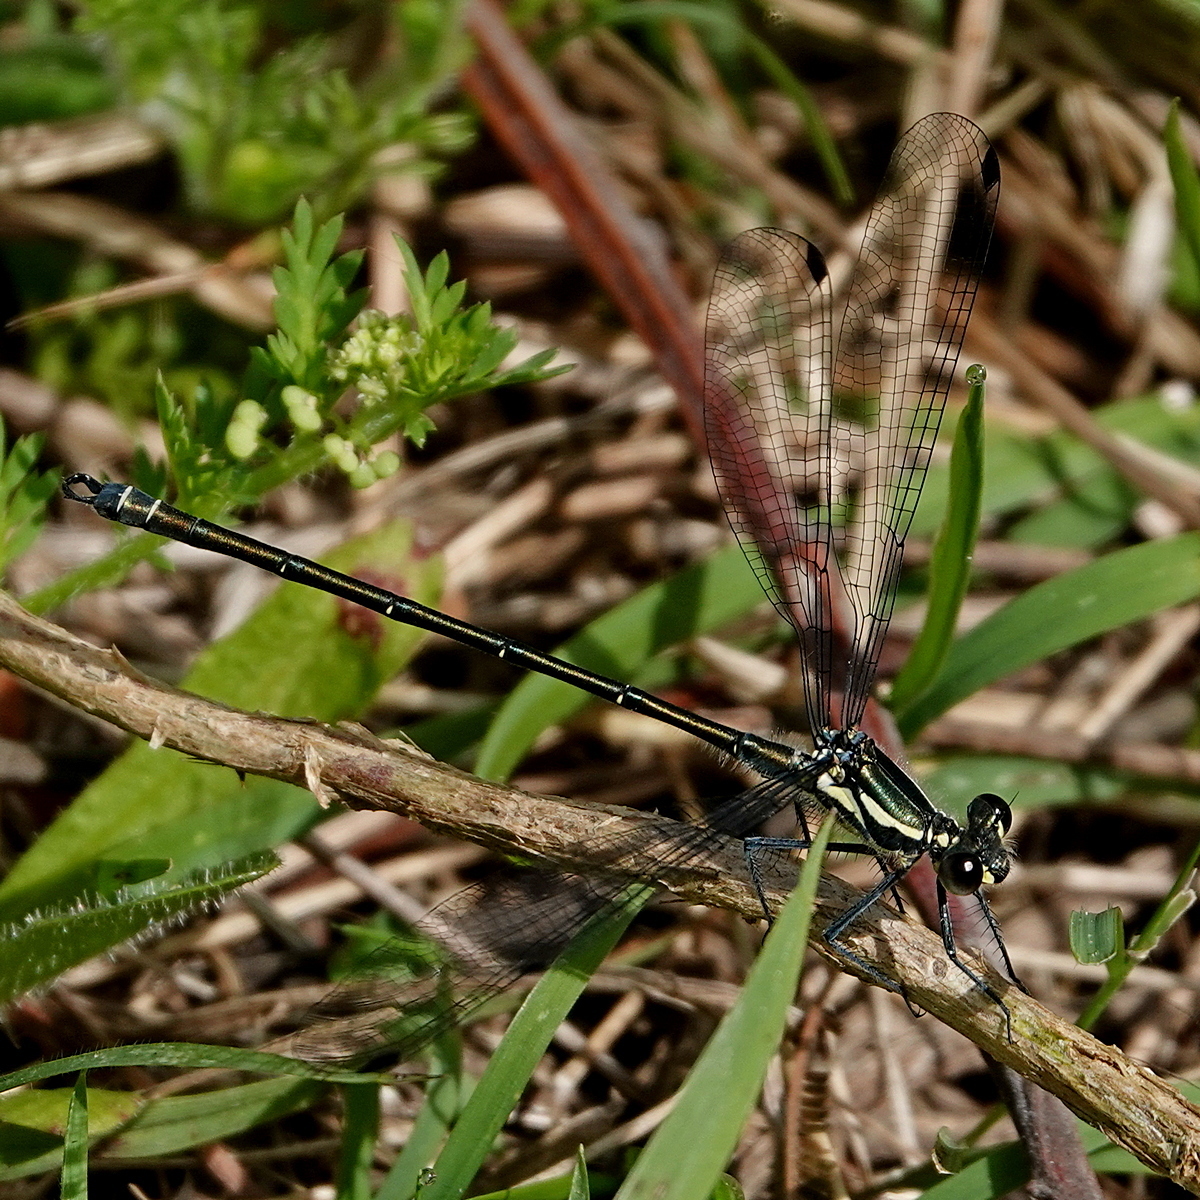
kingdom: Animalia
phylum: Arthropoda
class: Insecta
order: Odonata
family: Argiolestidae
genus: Austroargiolestes
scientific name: Austroargiolestes icteromelas
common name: Common flatwing
